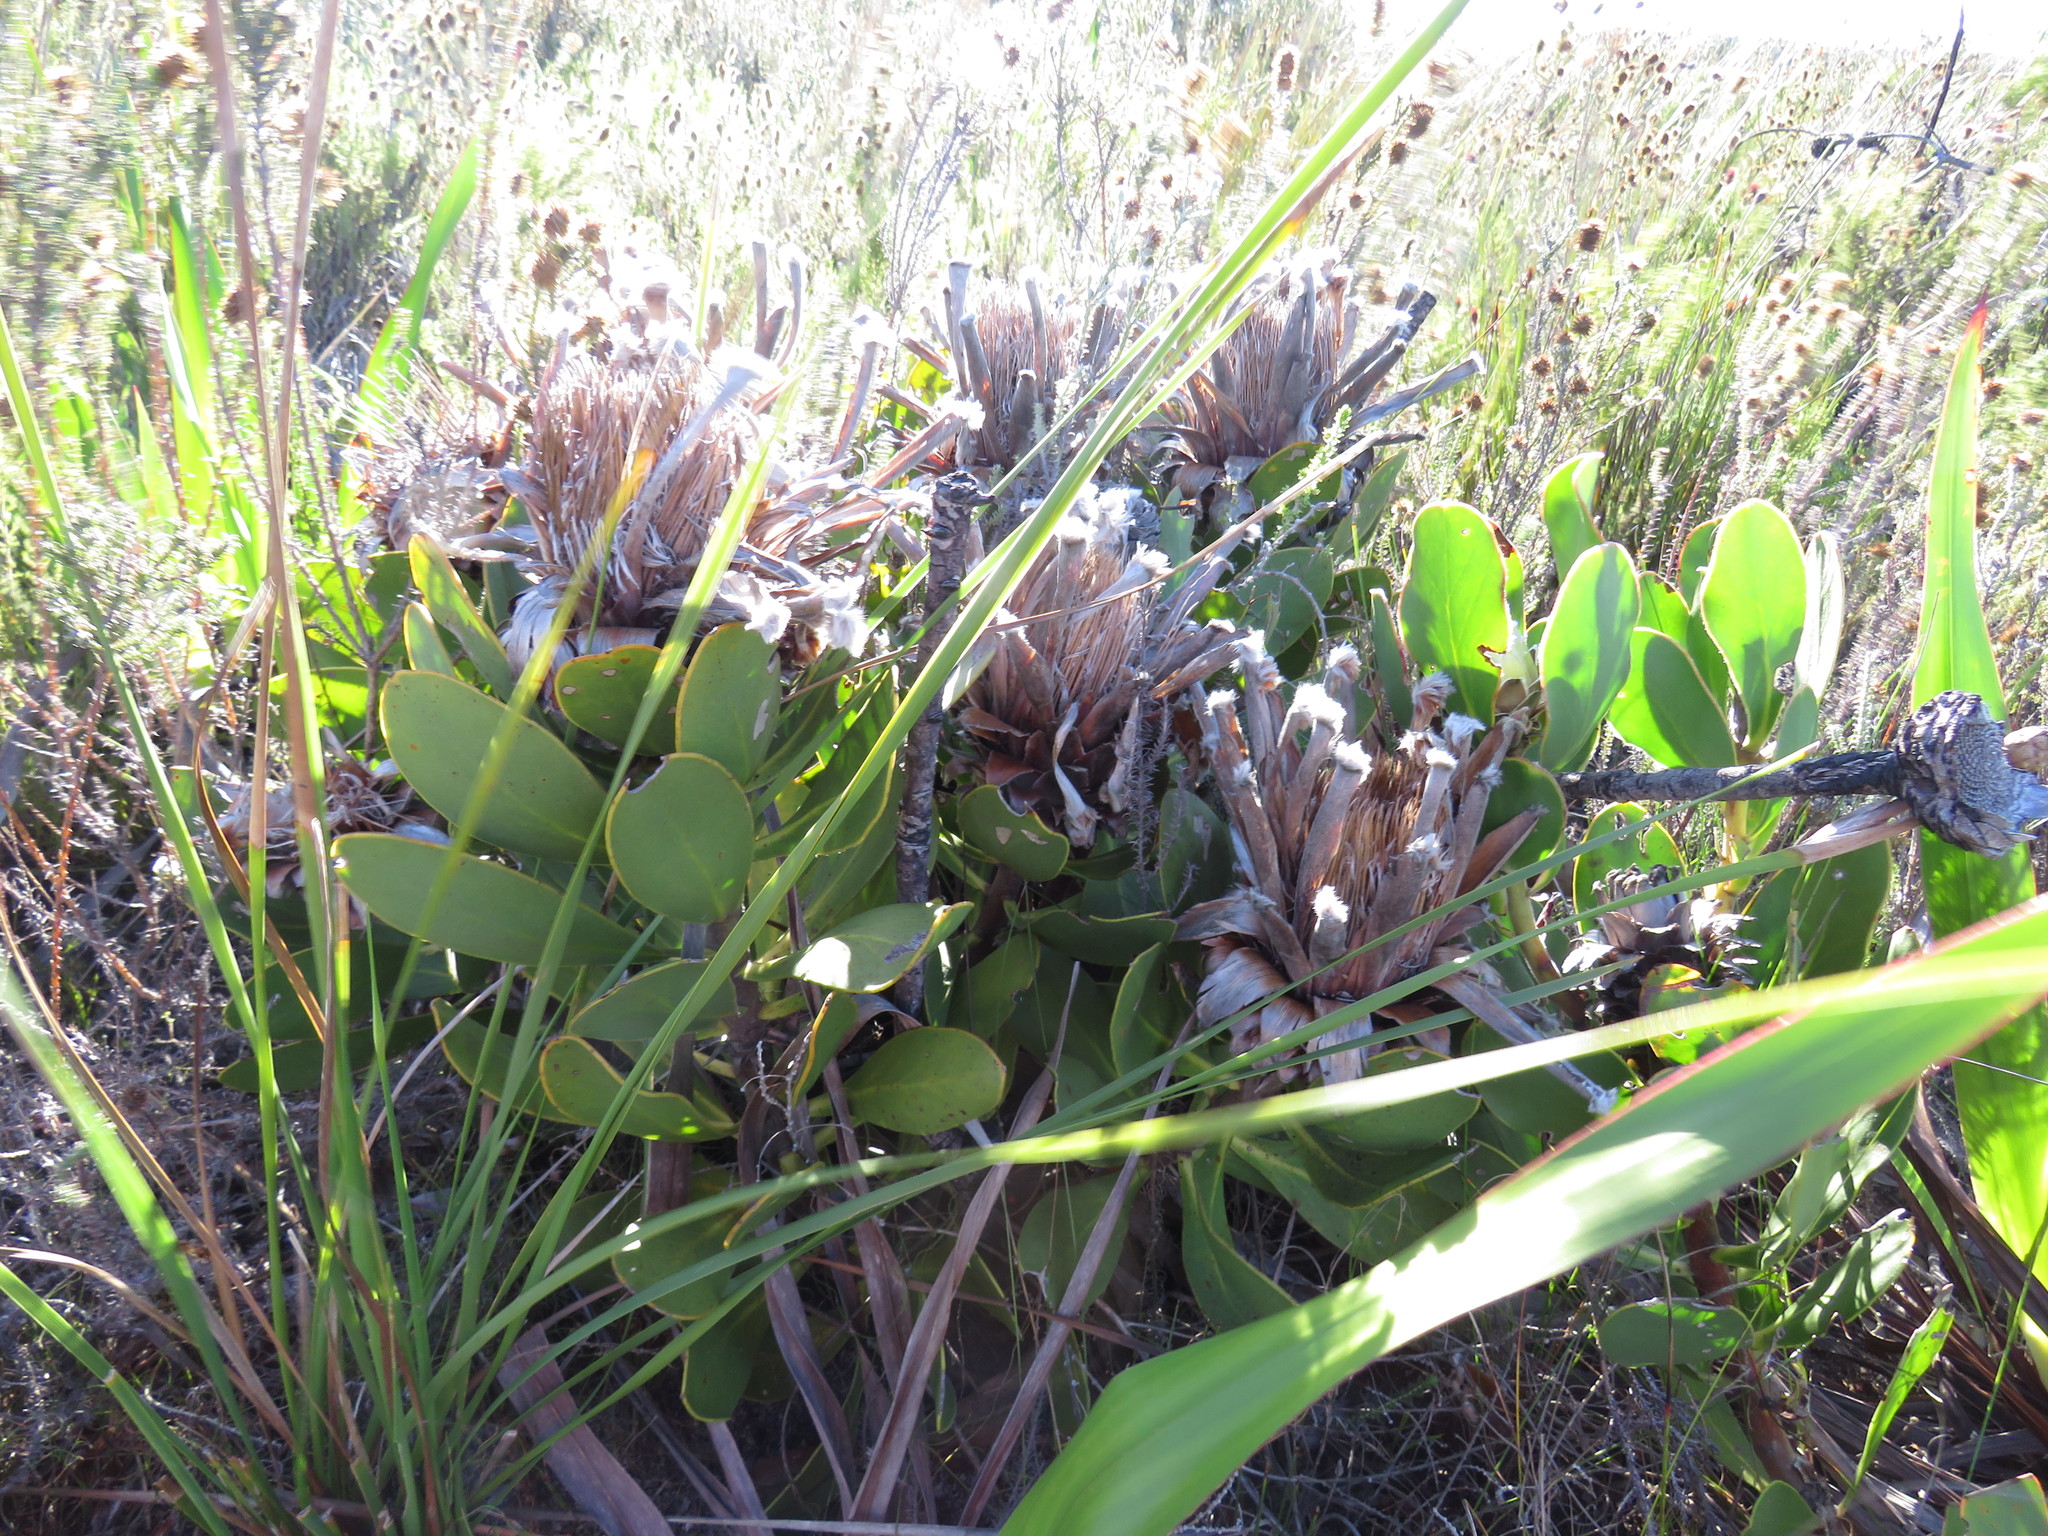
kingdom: Plantae
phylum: Tracheophyta
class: Magnoliopsida
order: Proteales
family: Proteaceae
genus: Protea
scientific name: Protea speciosa
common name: Brown-beard sugarbush
